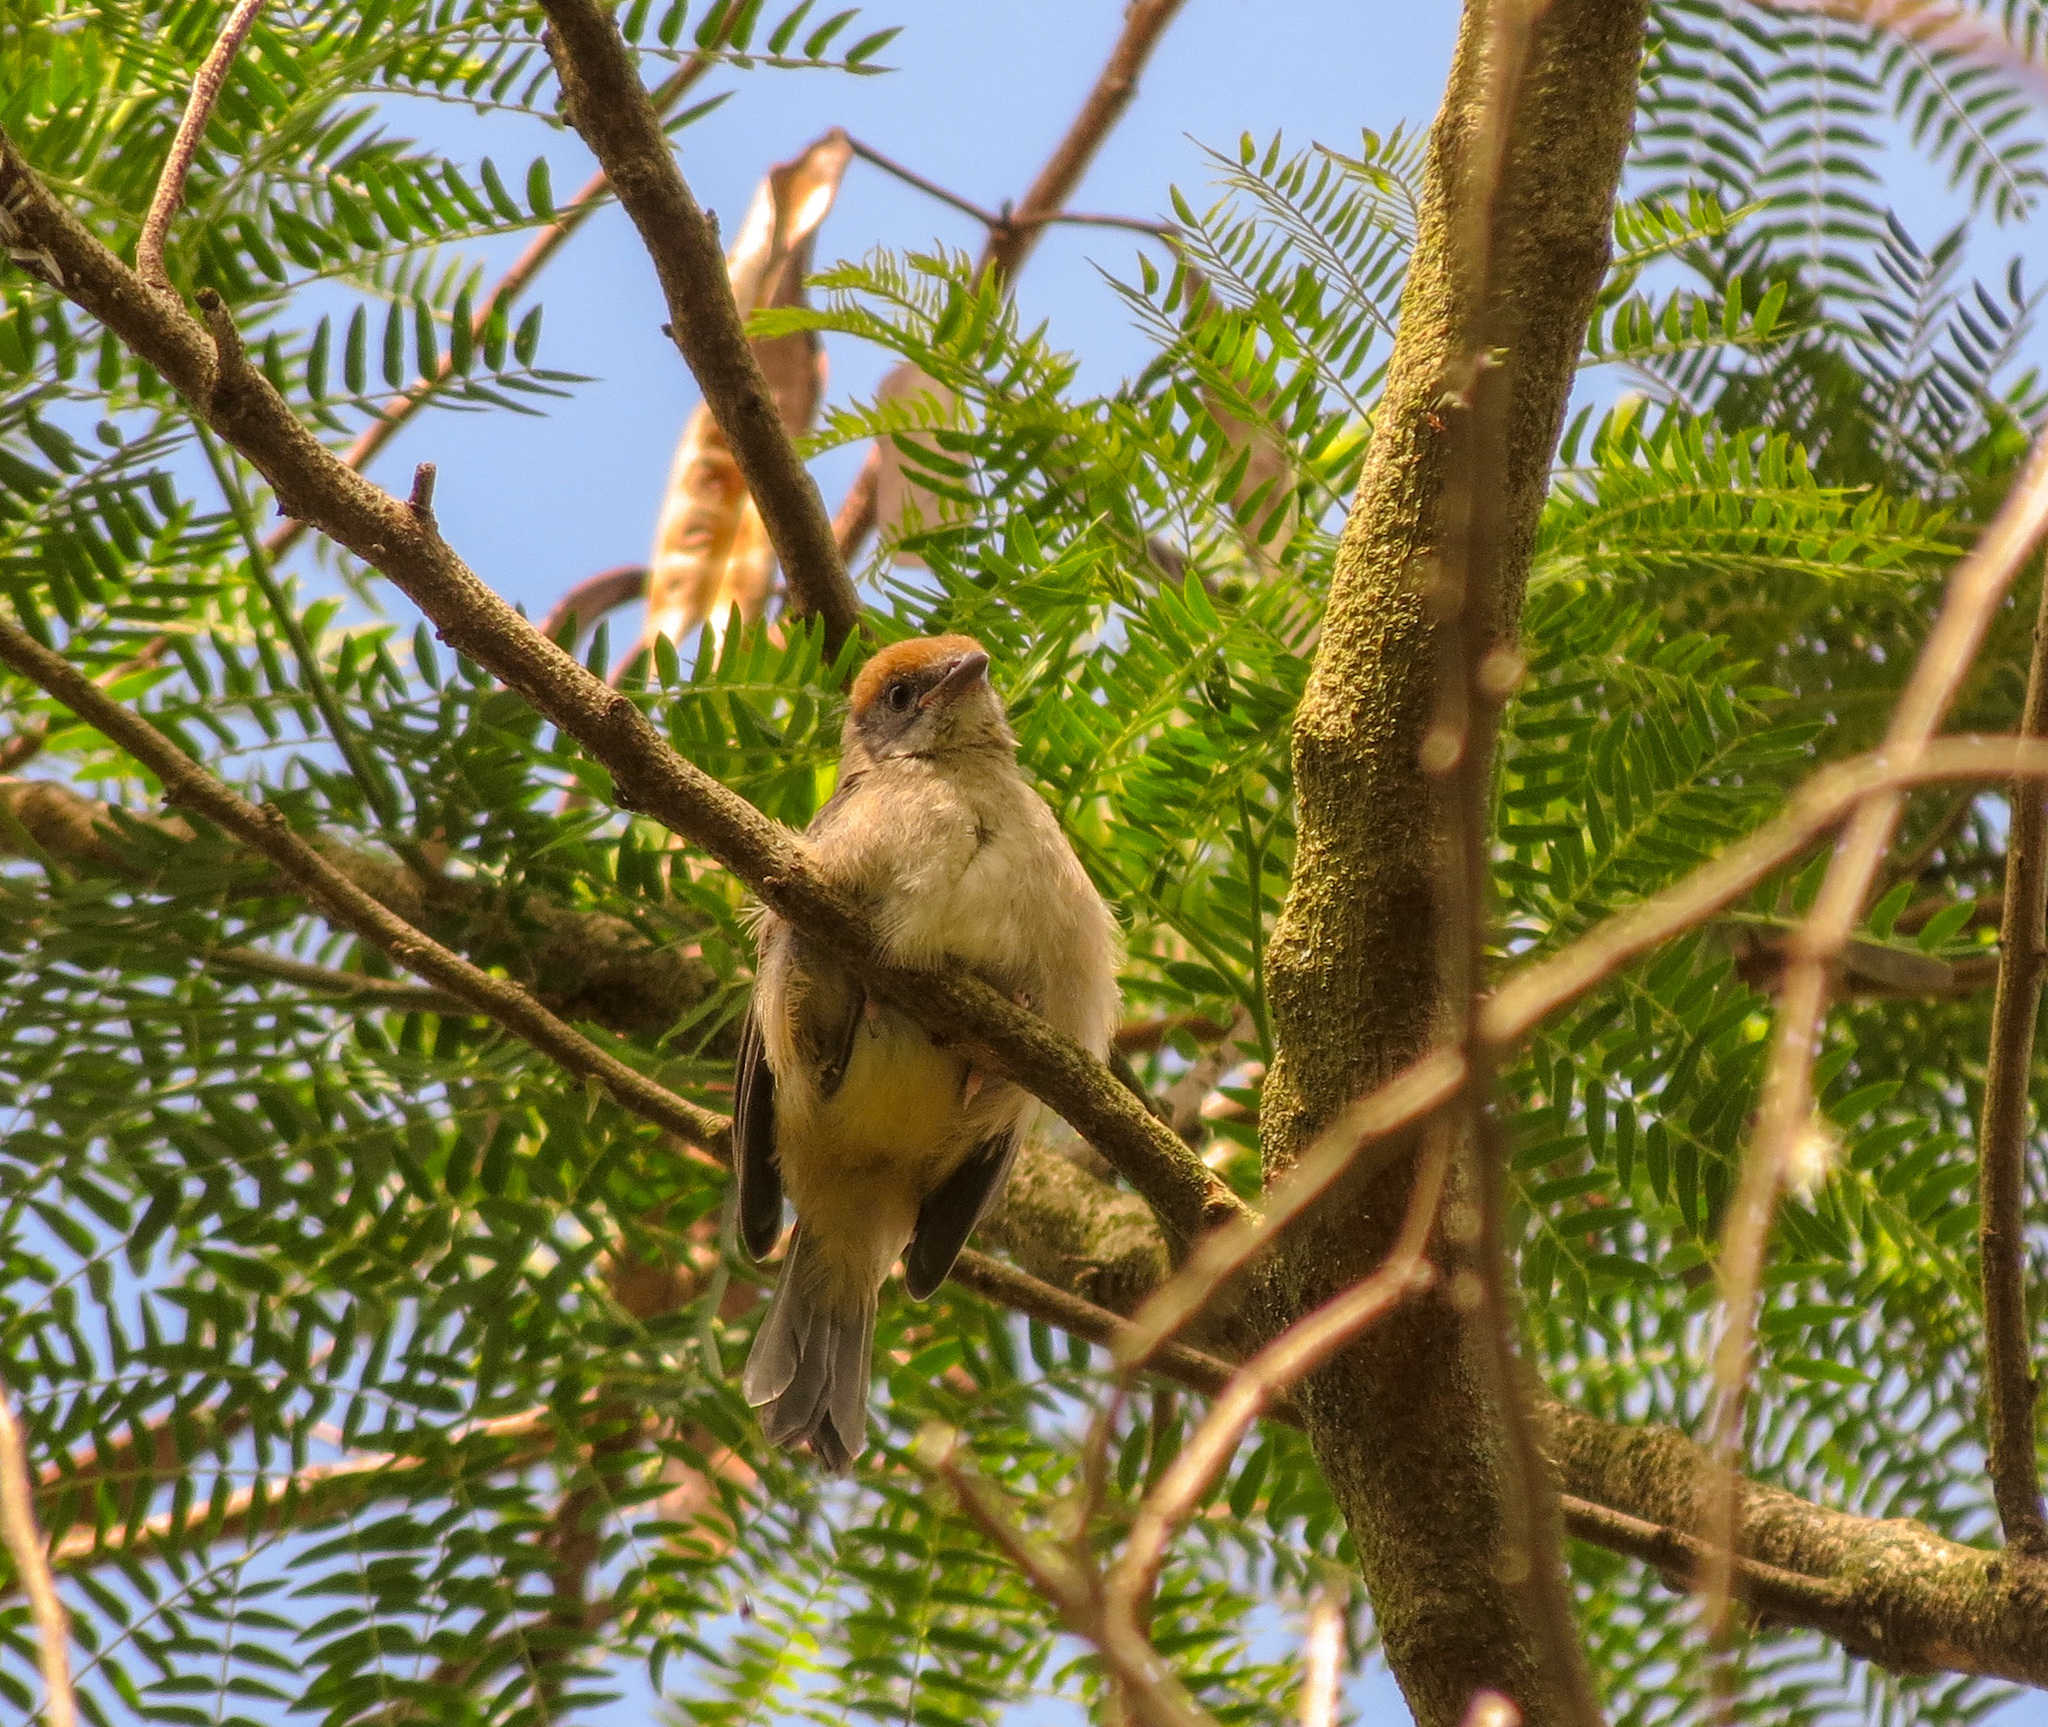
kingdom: Animalia
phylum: Chordata
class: Aves
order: Passeriformes
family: Thraupidae
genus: Stilpnia
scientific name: Stilpnia vitriolina
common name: Scrub tanager
